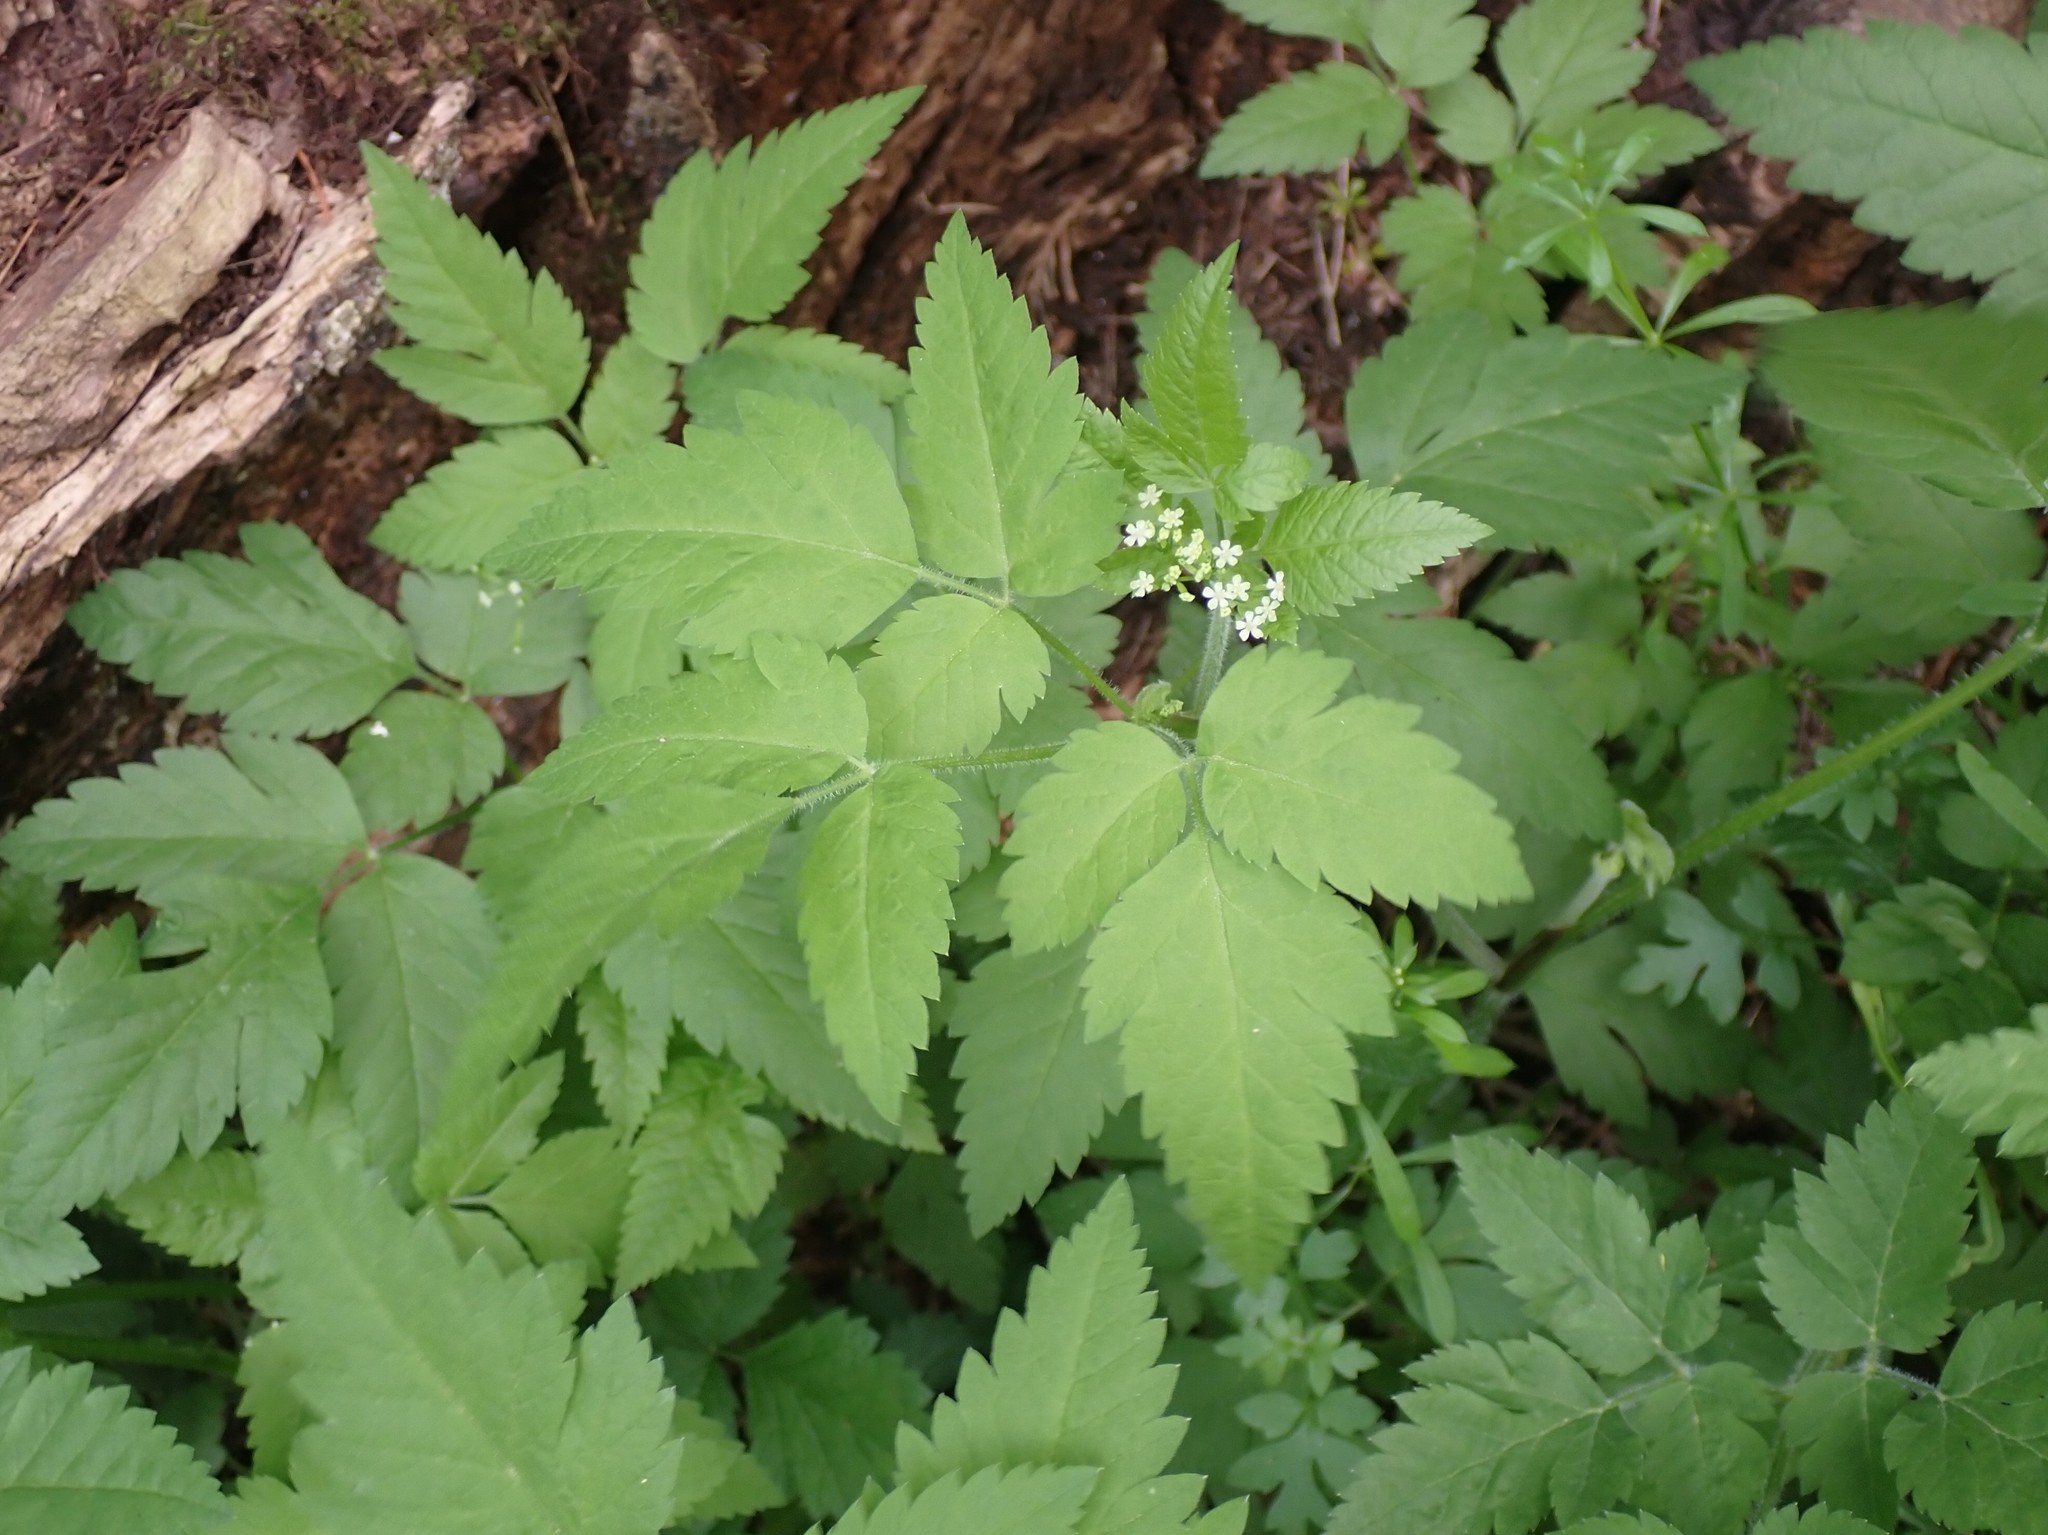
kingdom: Plantae
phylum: Tracheophyta
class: Magnoliopsida
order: Apiales
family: Apiaceae
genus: Osmorhiza
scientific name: Osmorhiza berteroi
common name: Mountain sweet cicely
